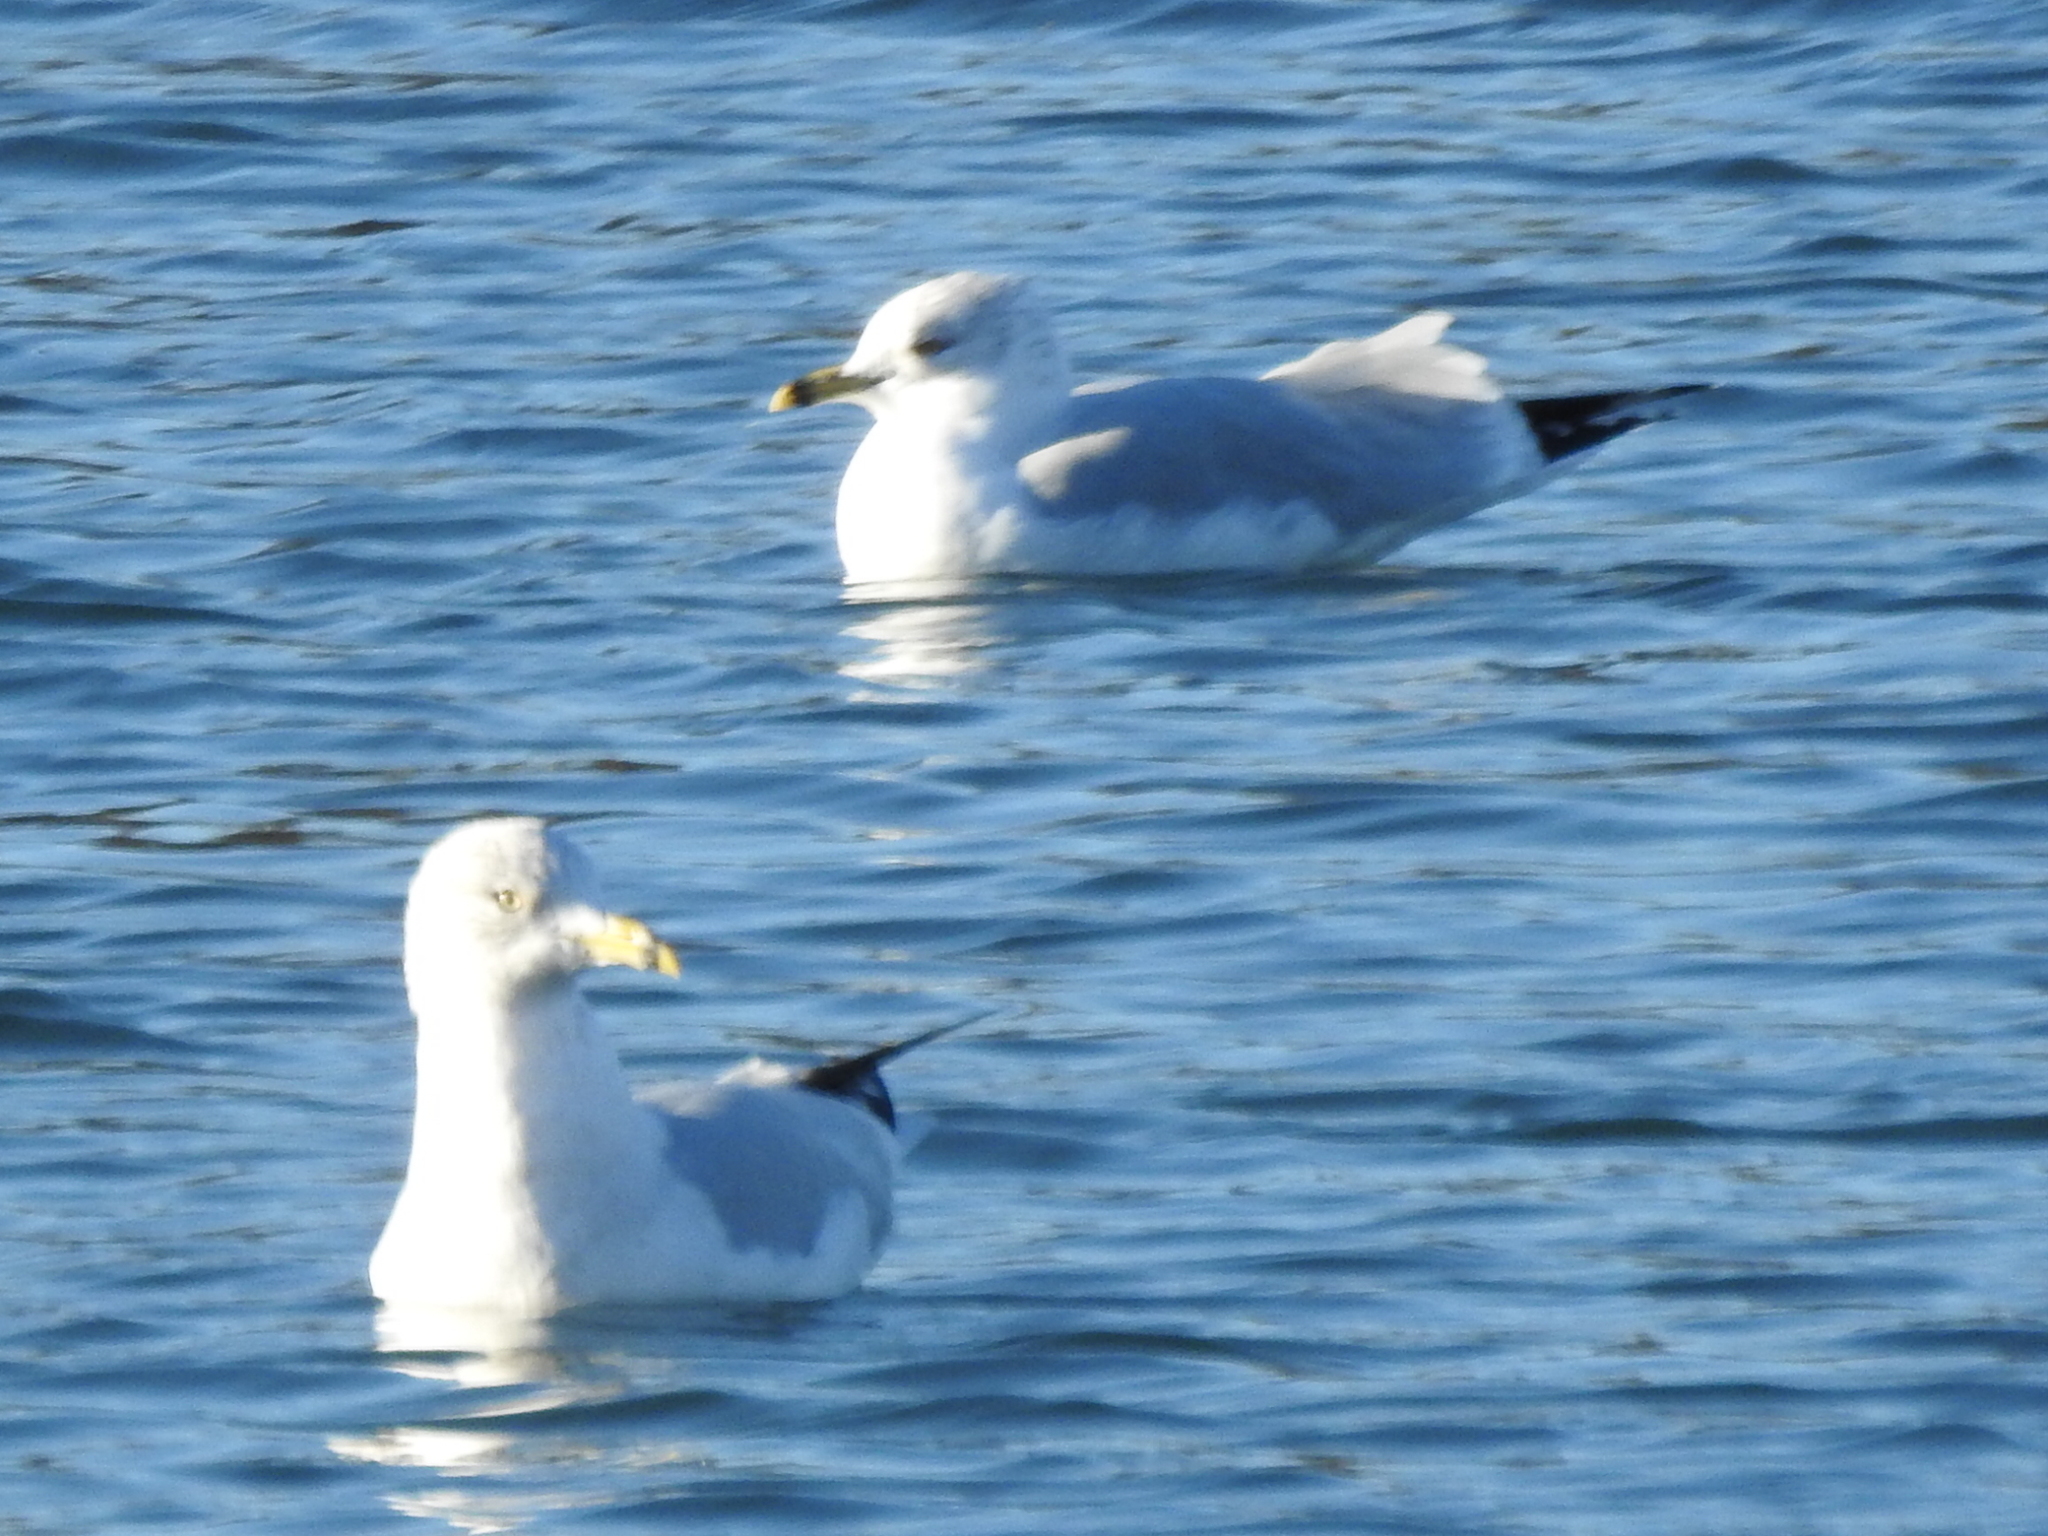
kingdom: Animalia
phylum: Chordata
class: Aves
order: Charadriiformes
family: Laridae
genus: Larus
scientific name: Larus delawarensis
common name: Ring-billed gull
